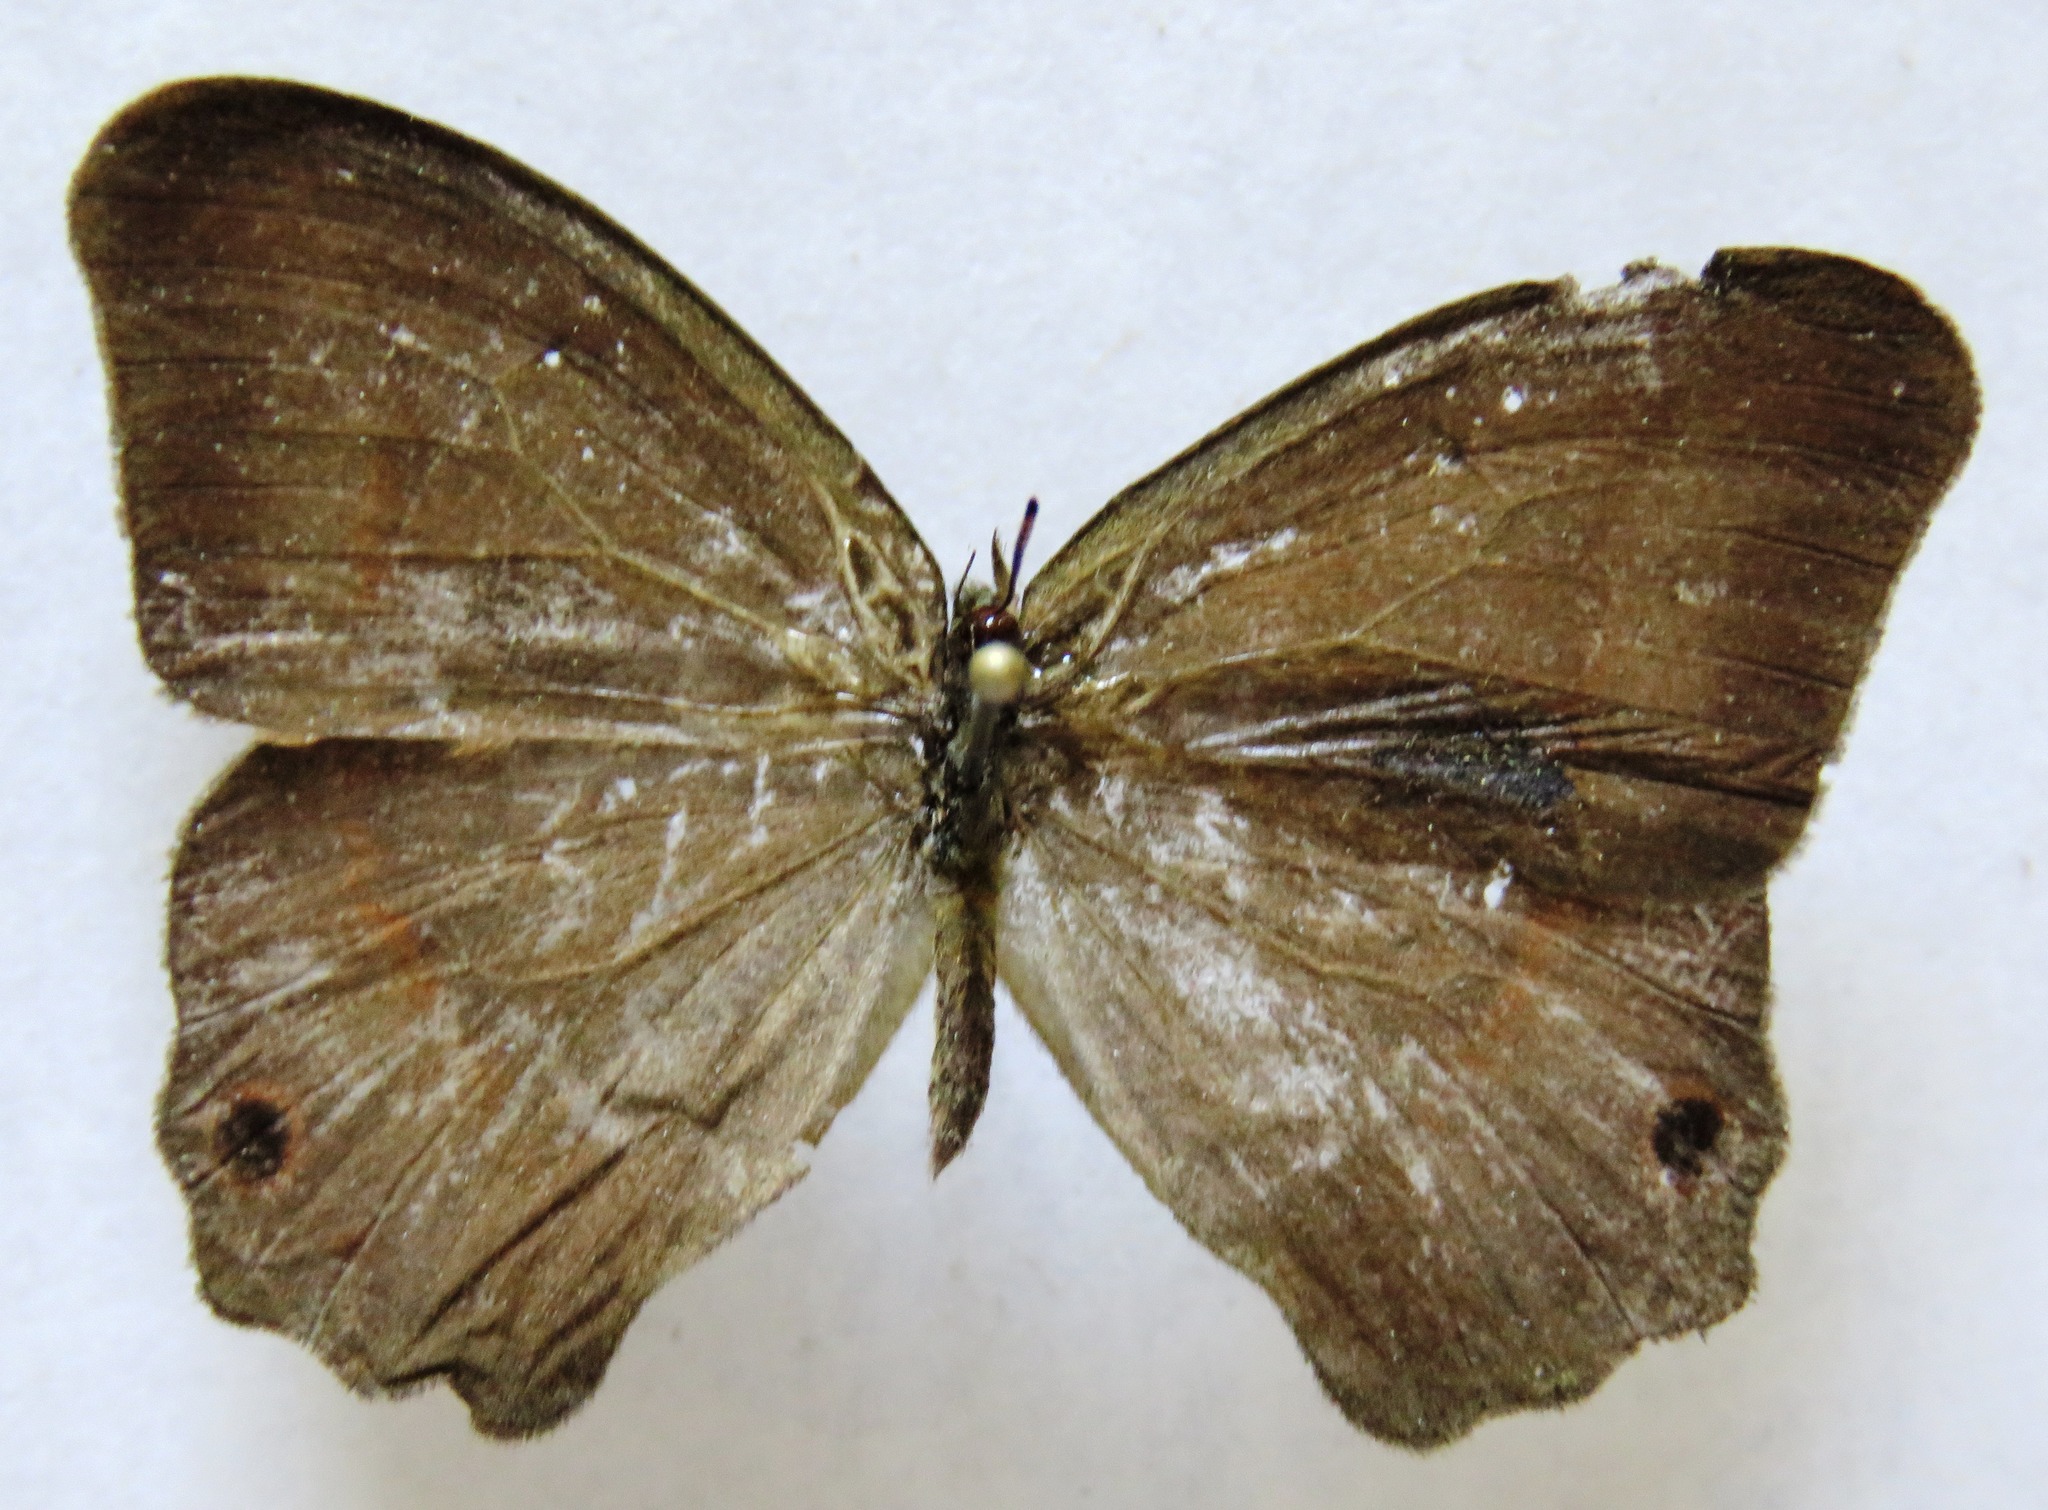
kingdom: Animalia
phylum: Arthropoda
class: Insecta
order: Lepidoptera
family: Nymphalidae
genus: Euptychia
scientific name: Euptychia Cyllopsis hedemanni
